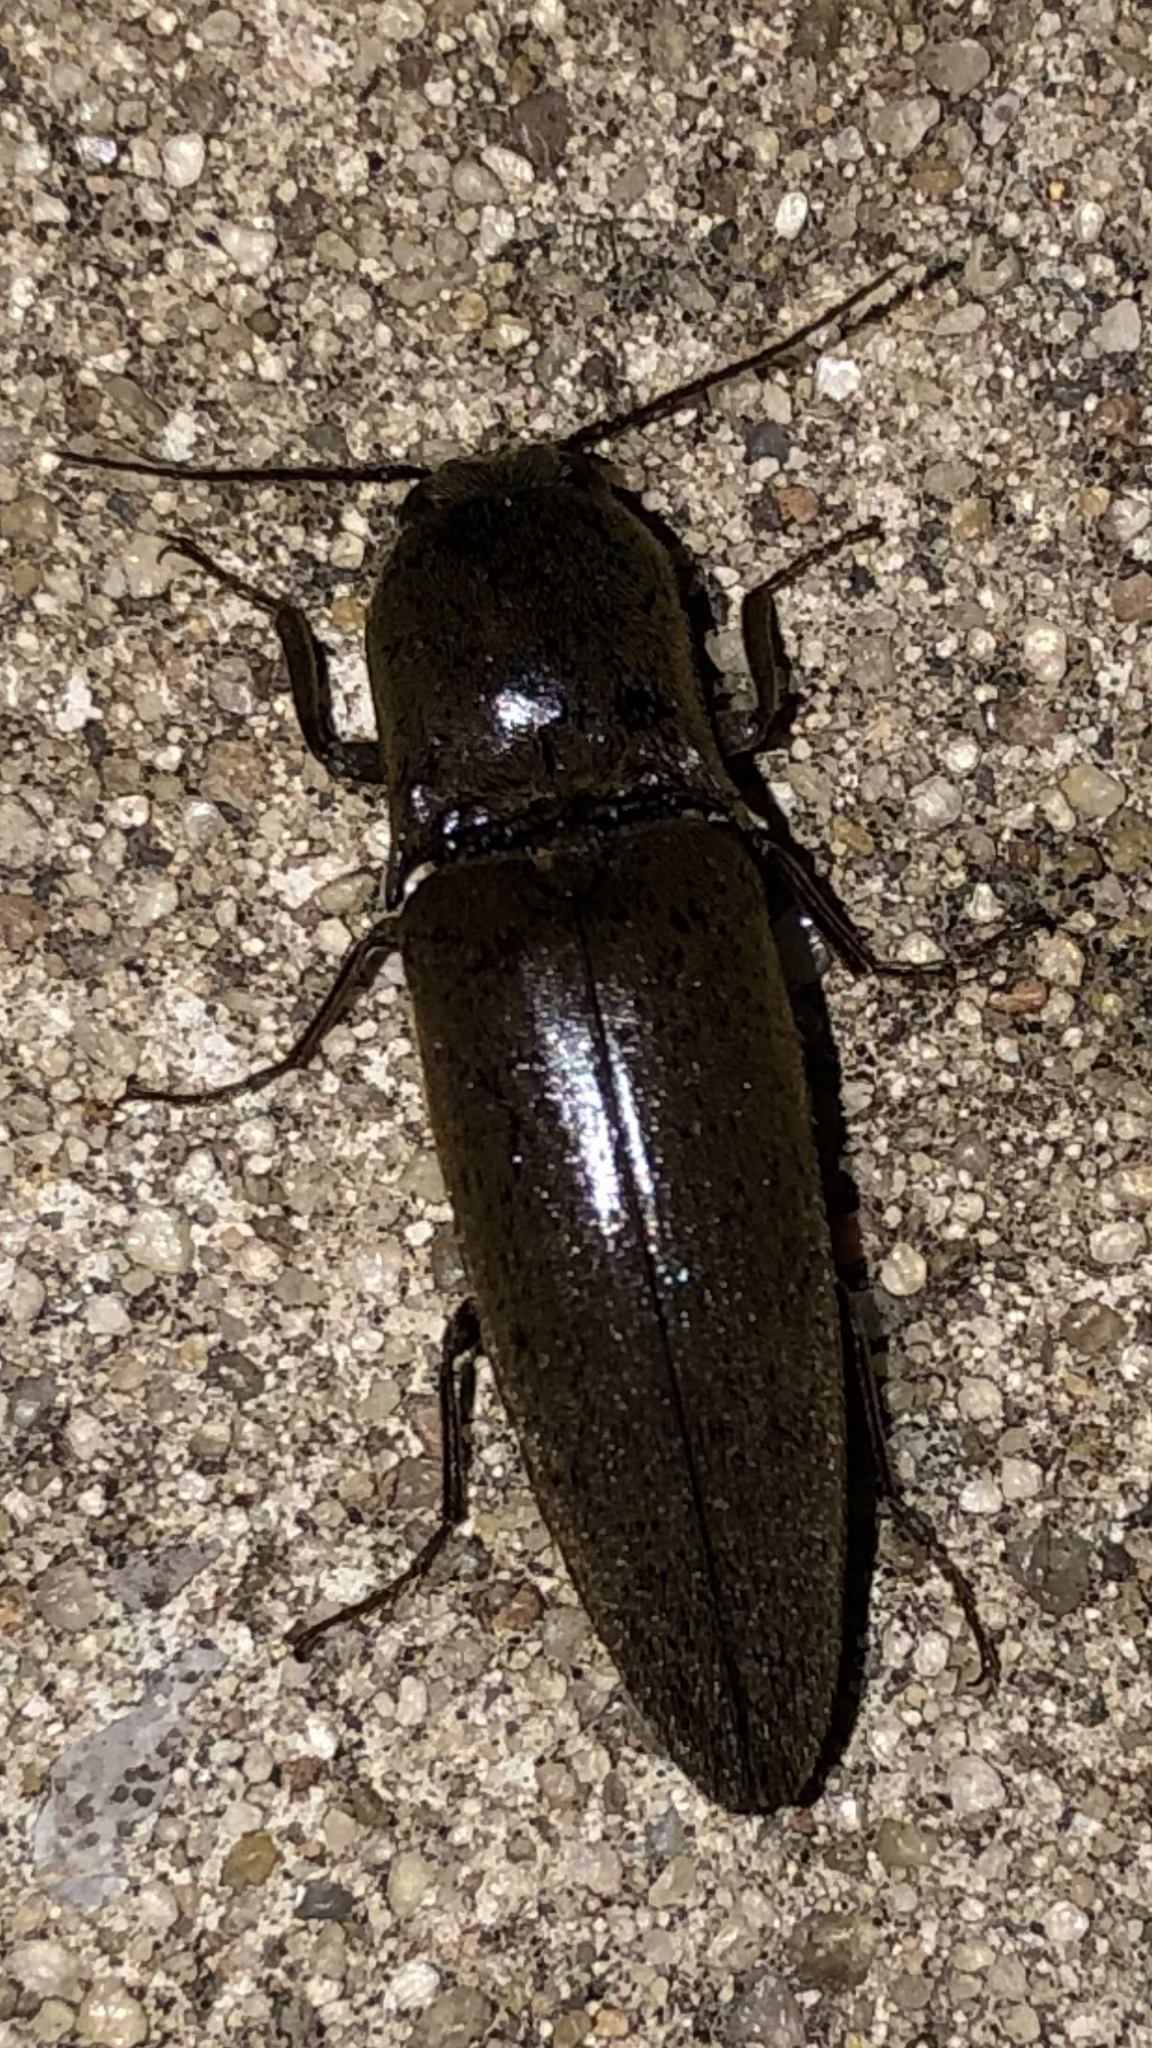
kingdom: Animalia
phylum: Arthropoda
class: Insecta
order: Coleoptera
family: Elateridae
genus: Orthostethus
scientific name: Orthostethus infuscatus
